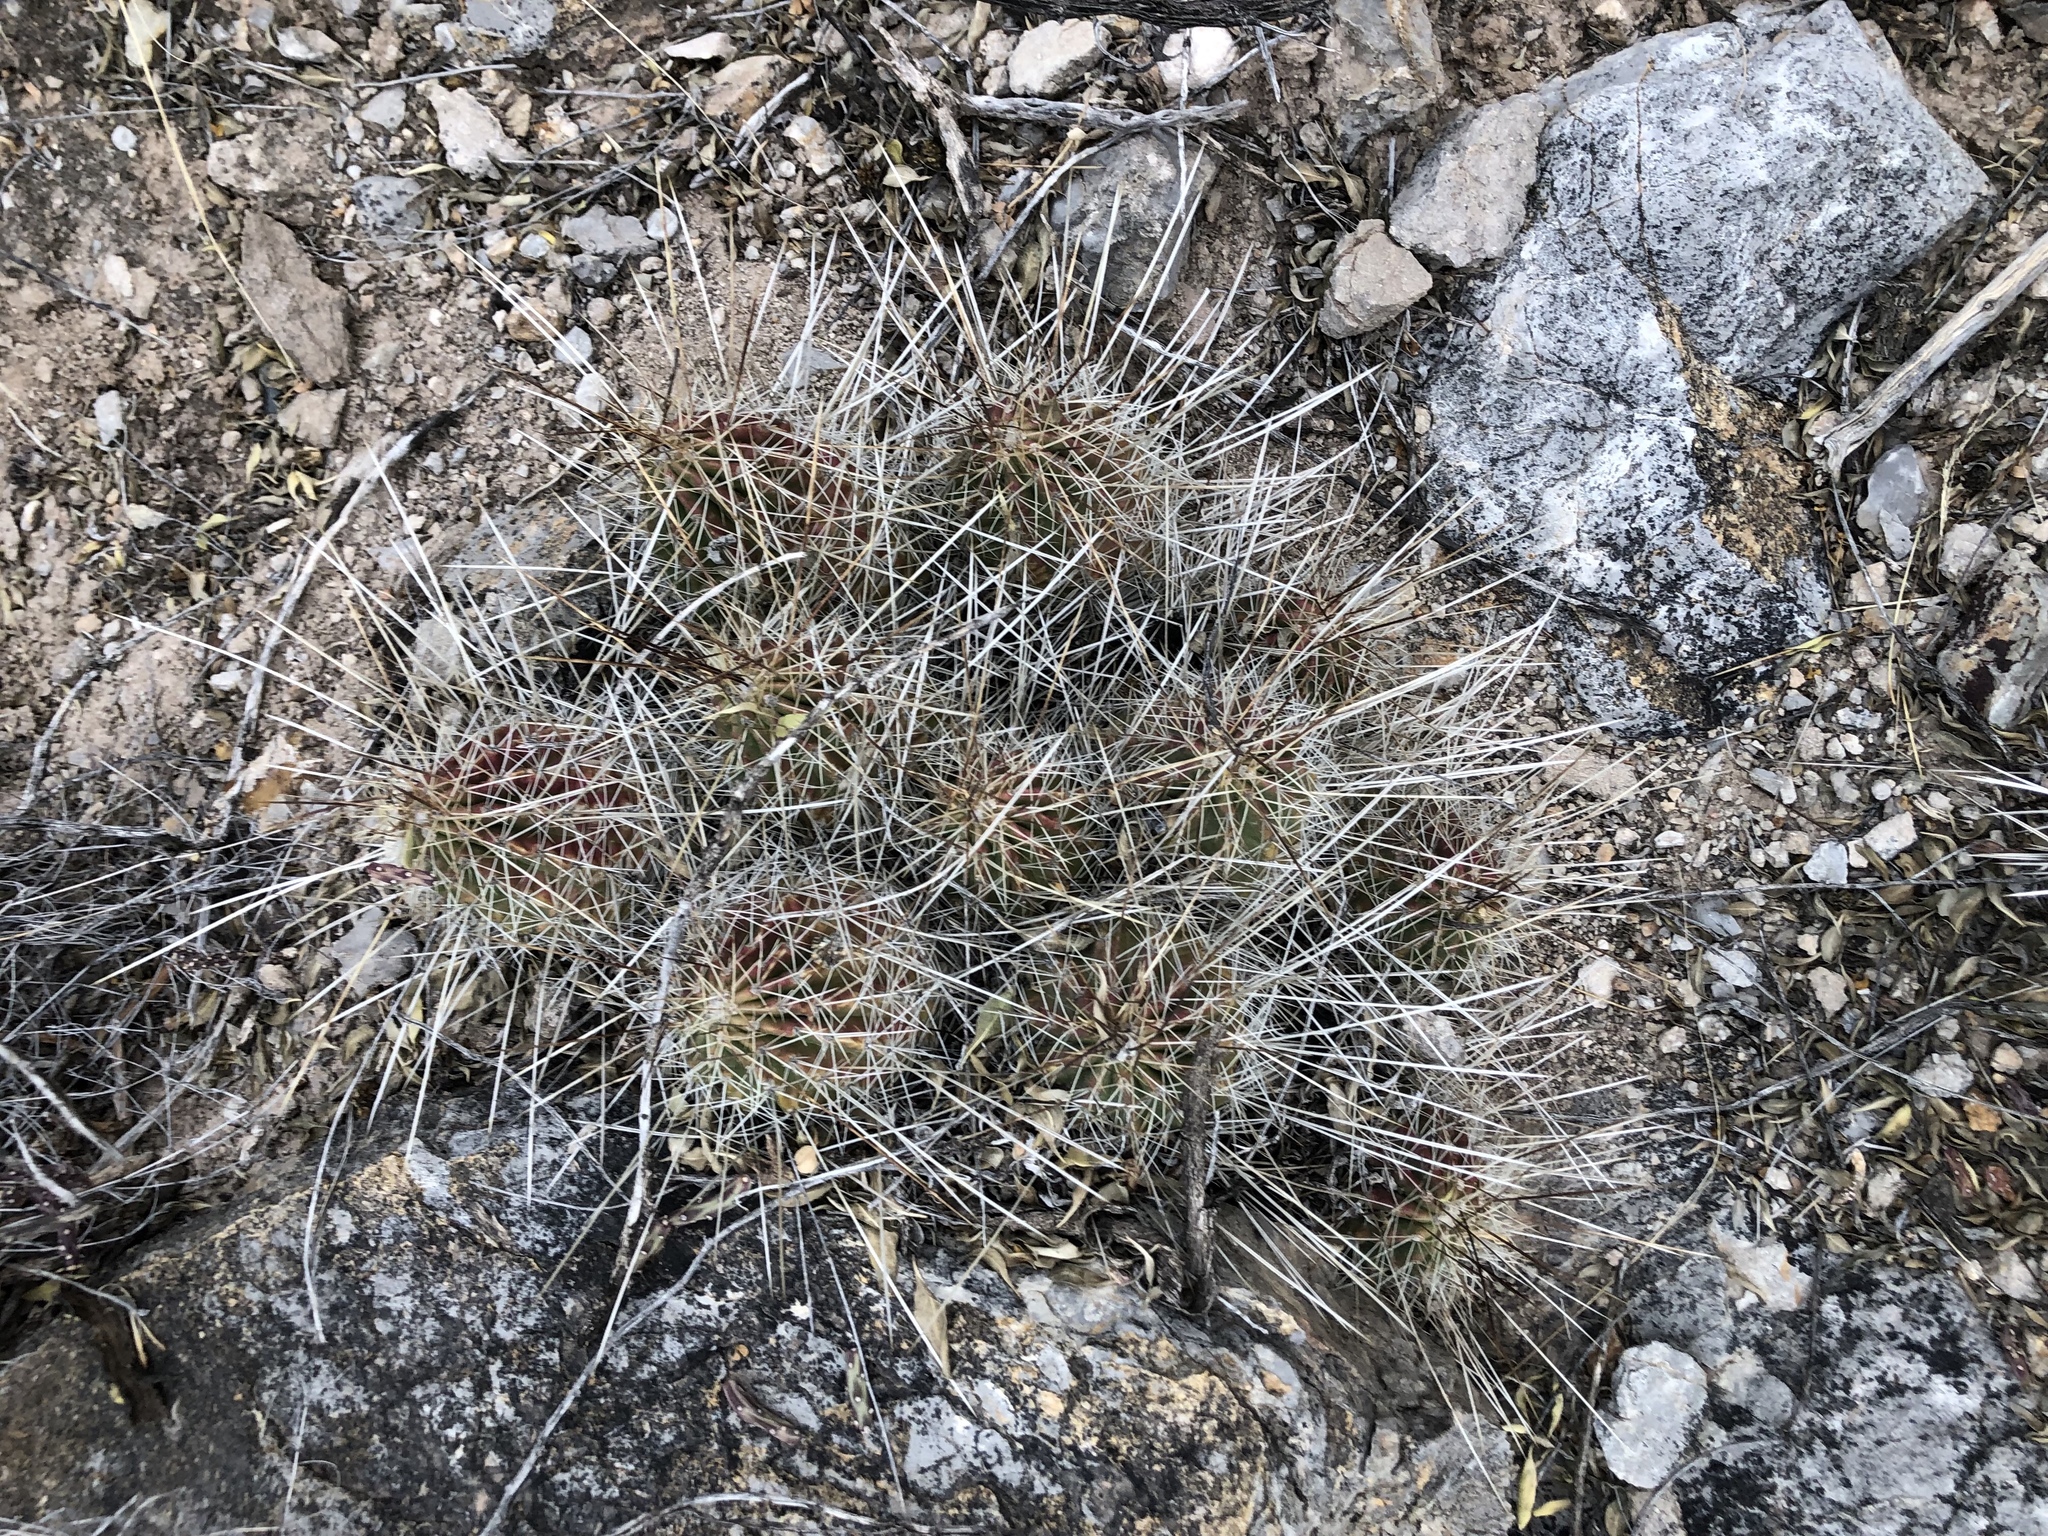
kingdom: Plantae
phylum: Tracheophyta
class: Magnoliopsida
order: Caryophyllales
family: Cactaceae
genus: Echinocereus
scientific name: Echinocereus stramineus
